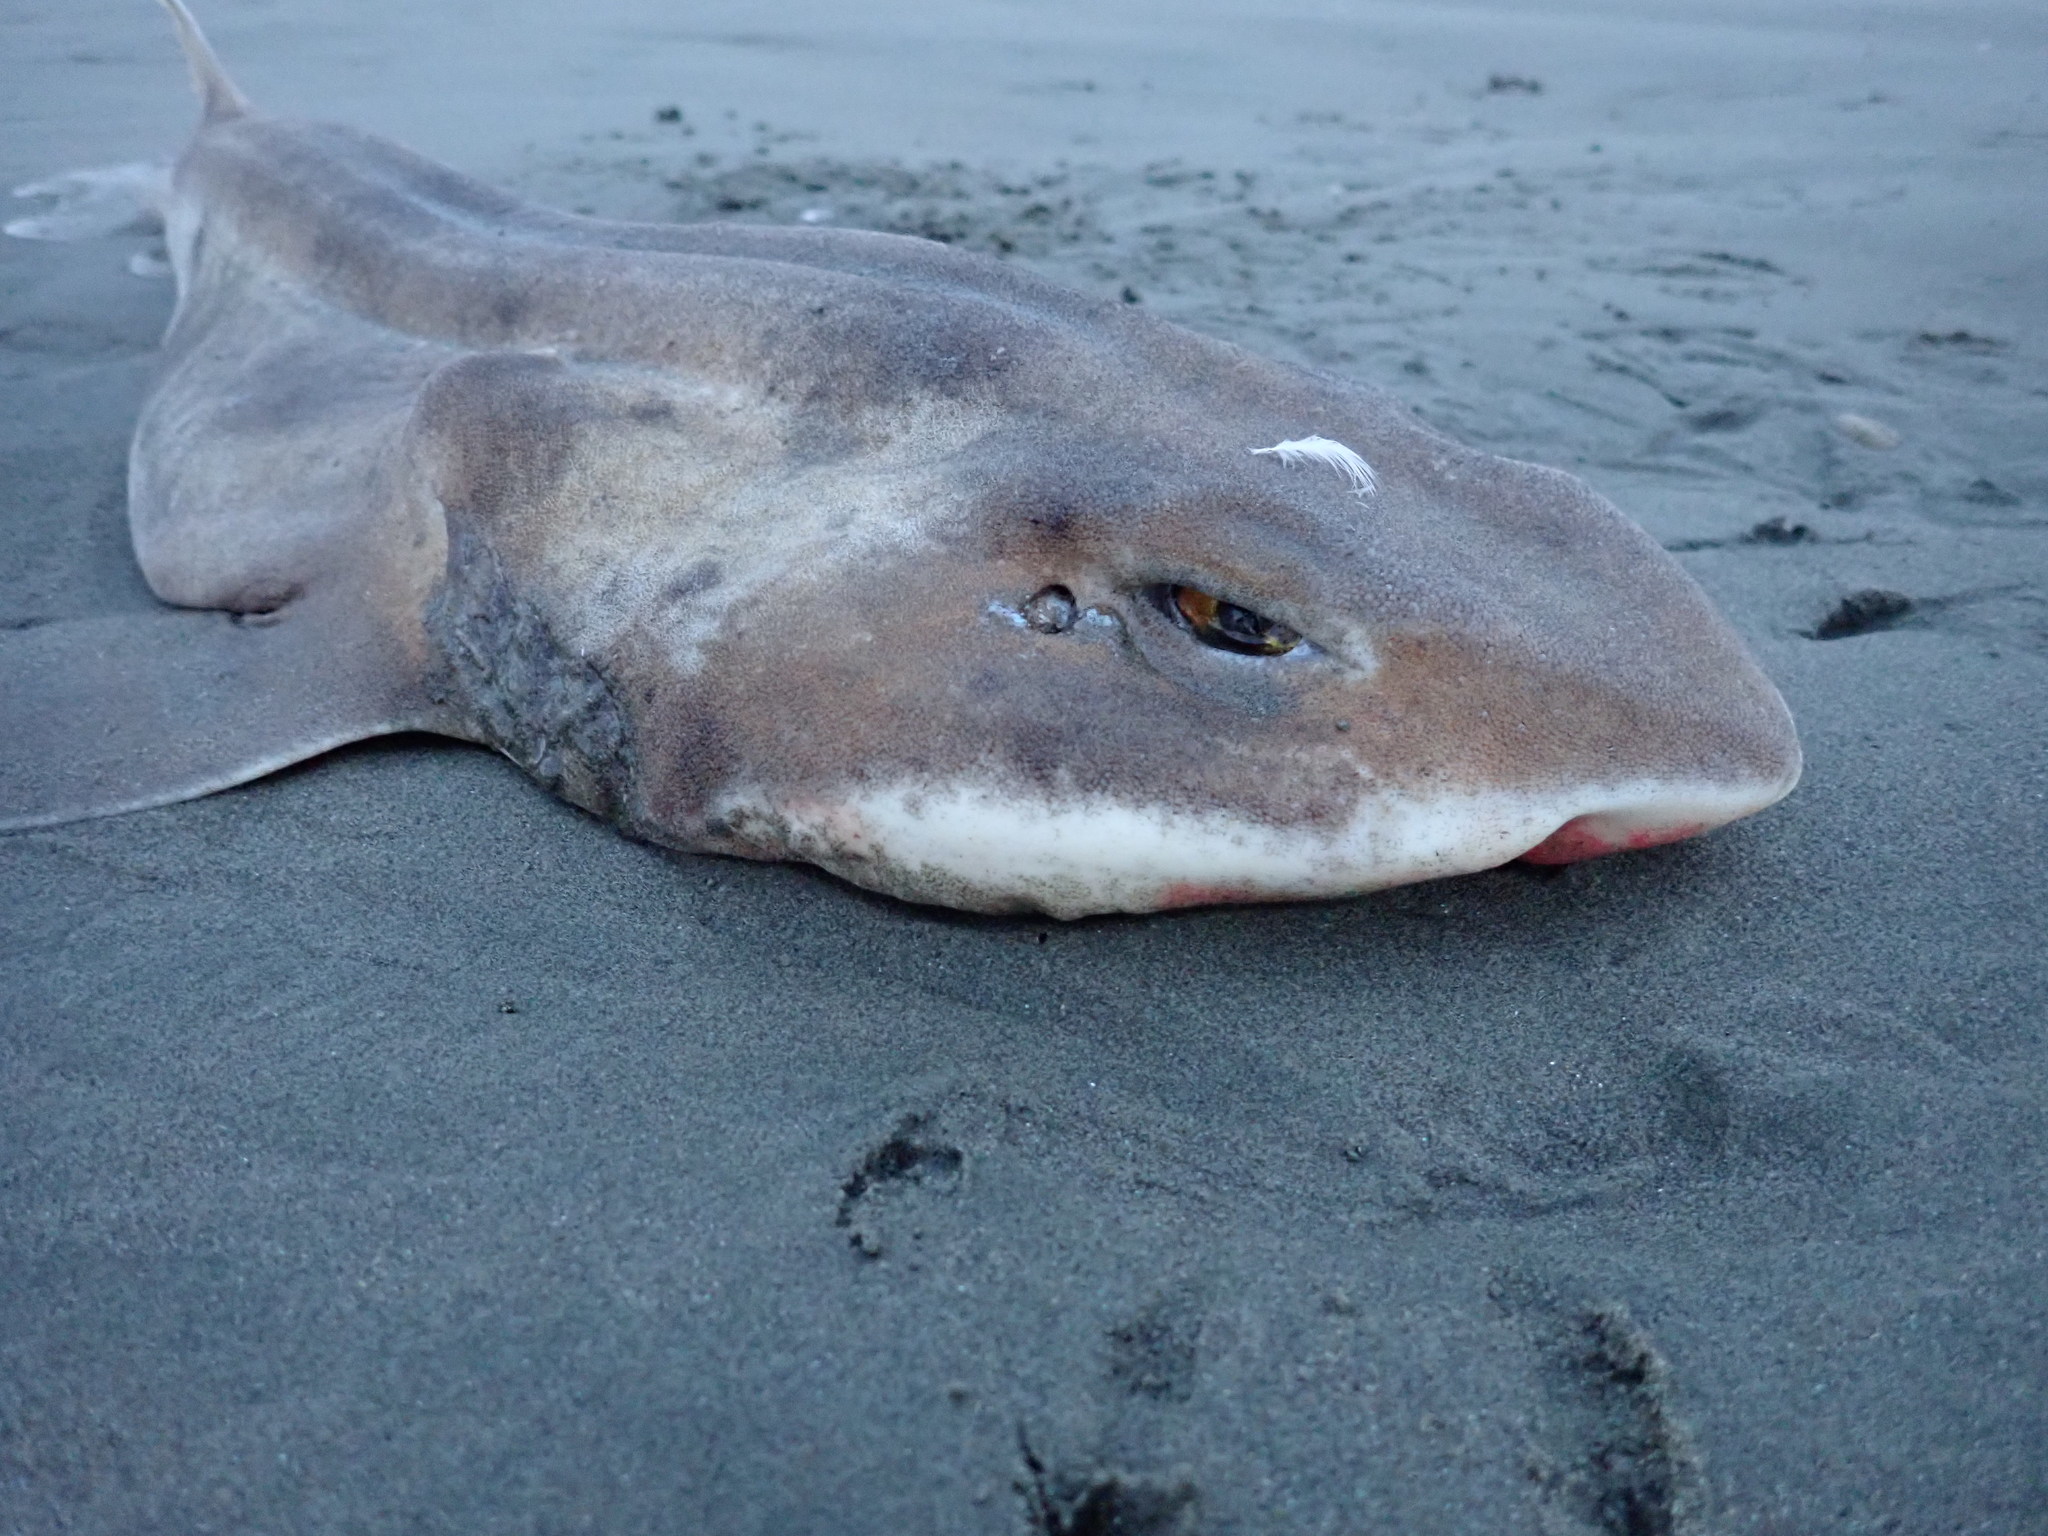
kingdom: Animalia
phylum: Chordata
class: Elasmobranchii
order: Carcharhiniformes
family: Scyliorhinidae
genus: Cephaloscyllium
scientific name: Cephaloscyllium isabellum
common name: Carpet shark
